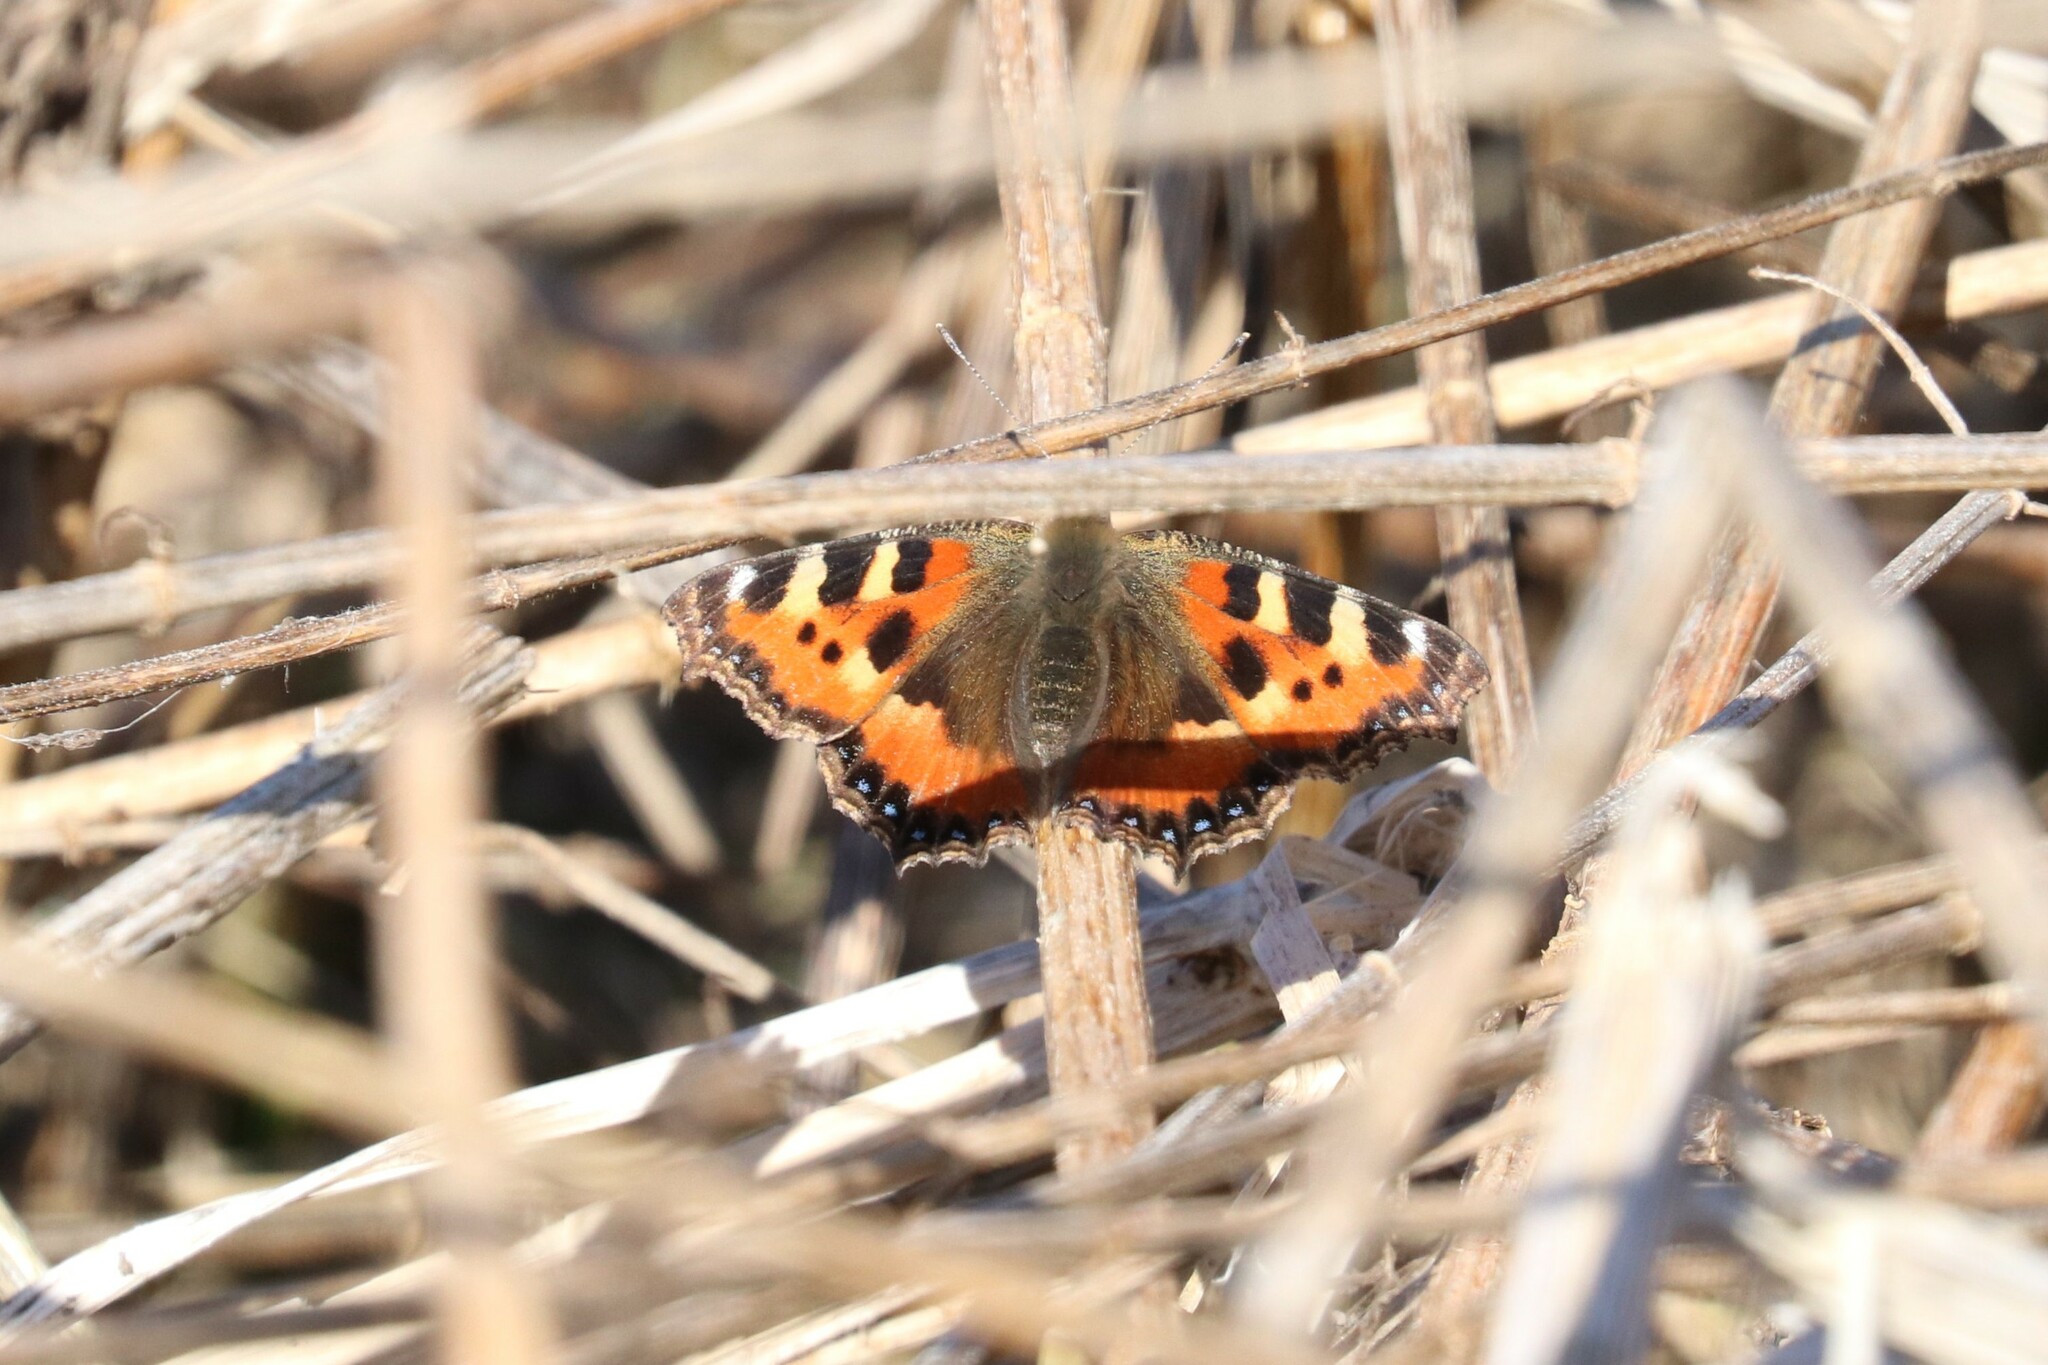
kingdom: Animalia
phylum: Arthropoda
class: Insecta
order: Lepidoptera
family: Nymphalidae
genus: Aglais
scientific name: Aglais urticae
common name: Small tortoiseshell
